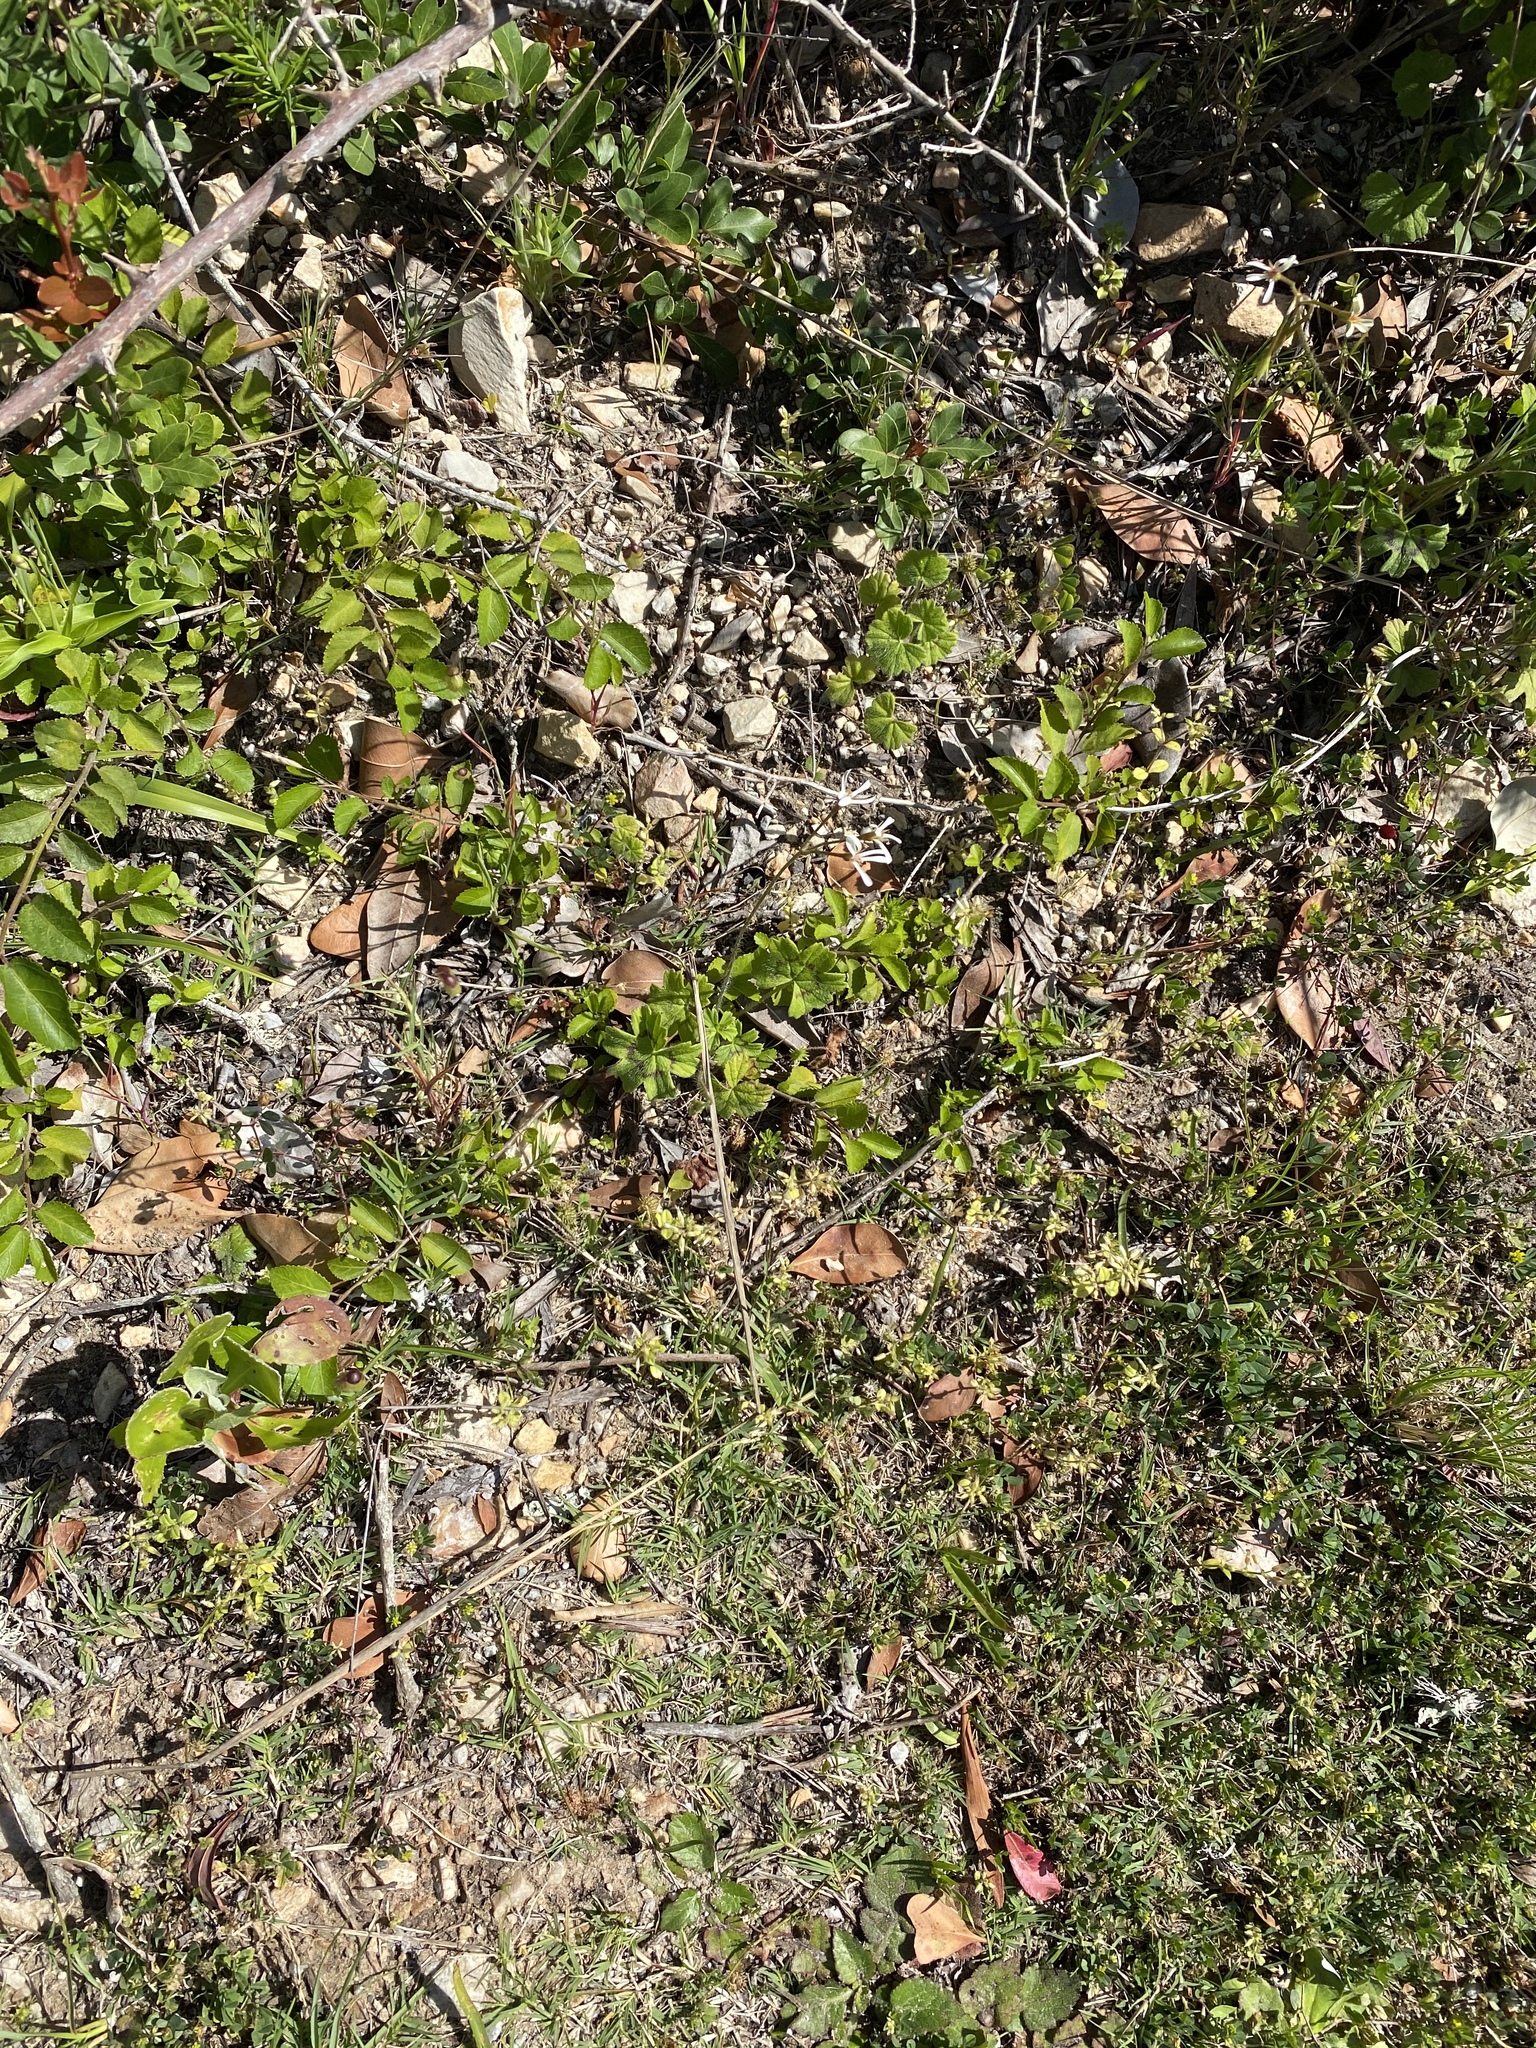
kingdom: Plantae
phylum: Tracheophyta
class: Magnoliopsida
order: Geraniales
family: Geraniaceae
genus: Pelargonium
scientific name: Pelargonium alchemilloides
